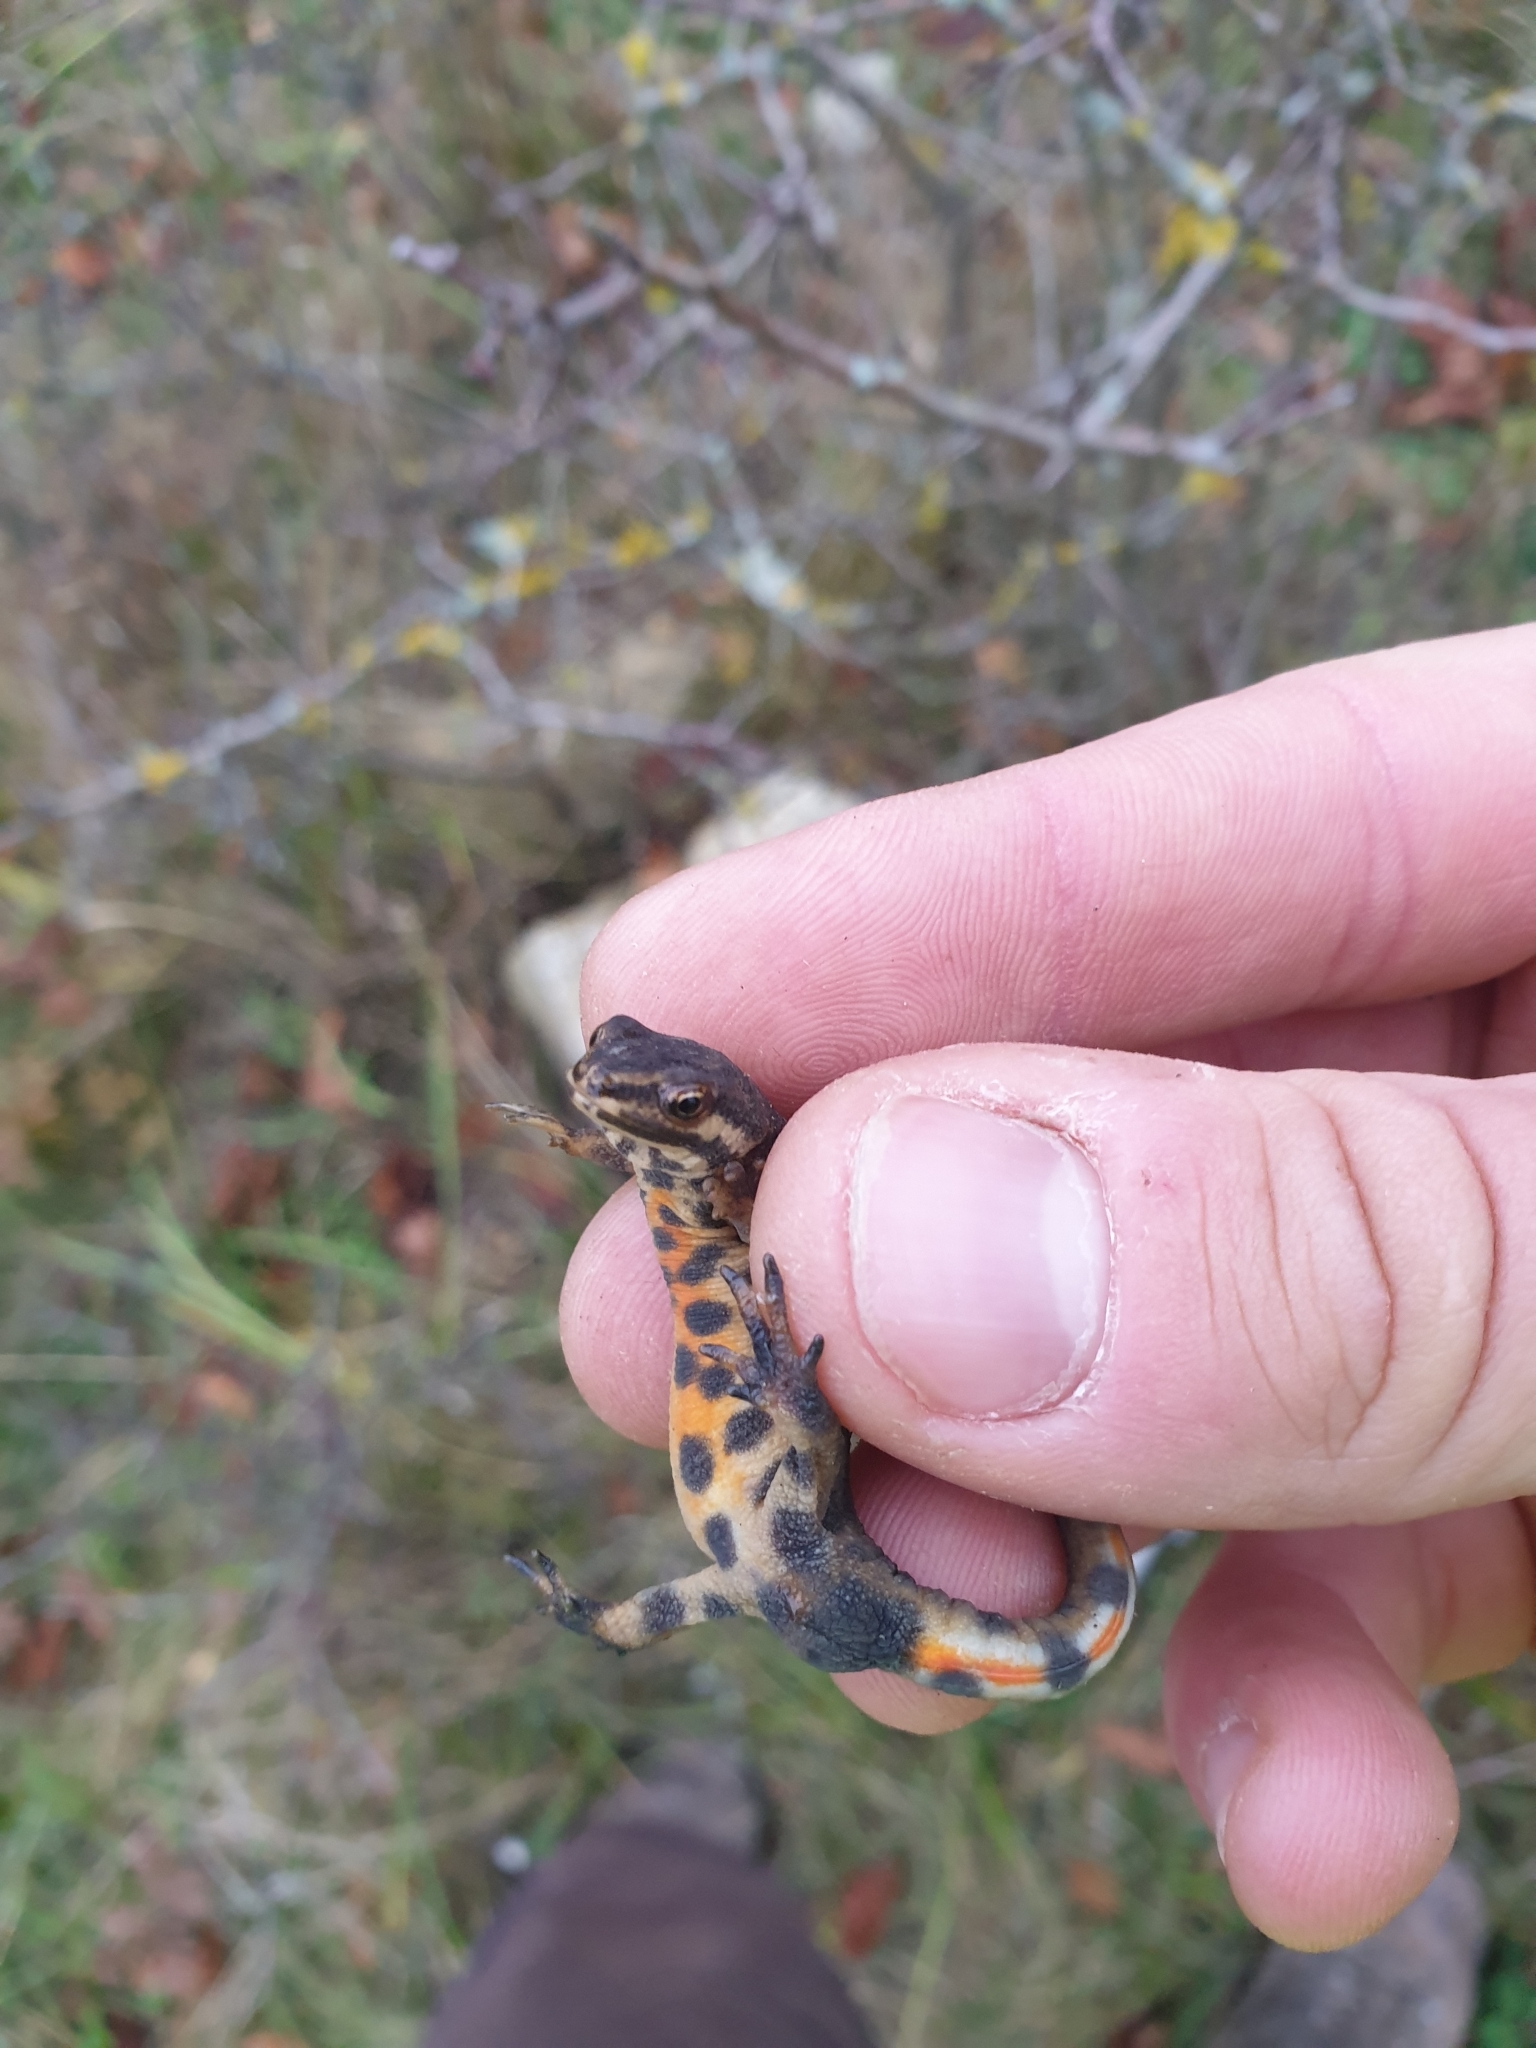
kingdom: Animalia
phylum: Chordata
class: Amphibia
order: Caudata
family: Salamandridae
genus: Lissotriton
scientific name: Lissotriton vulgaris
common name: Smooth newt
